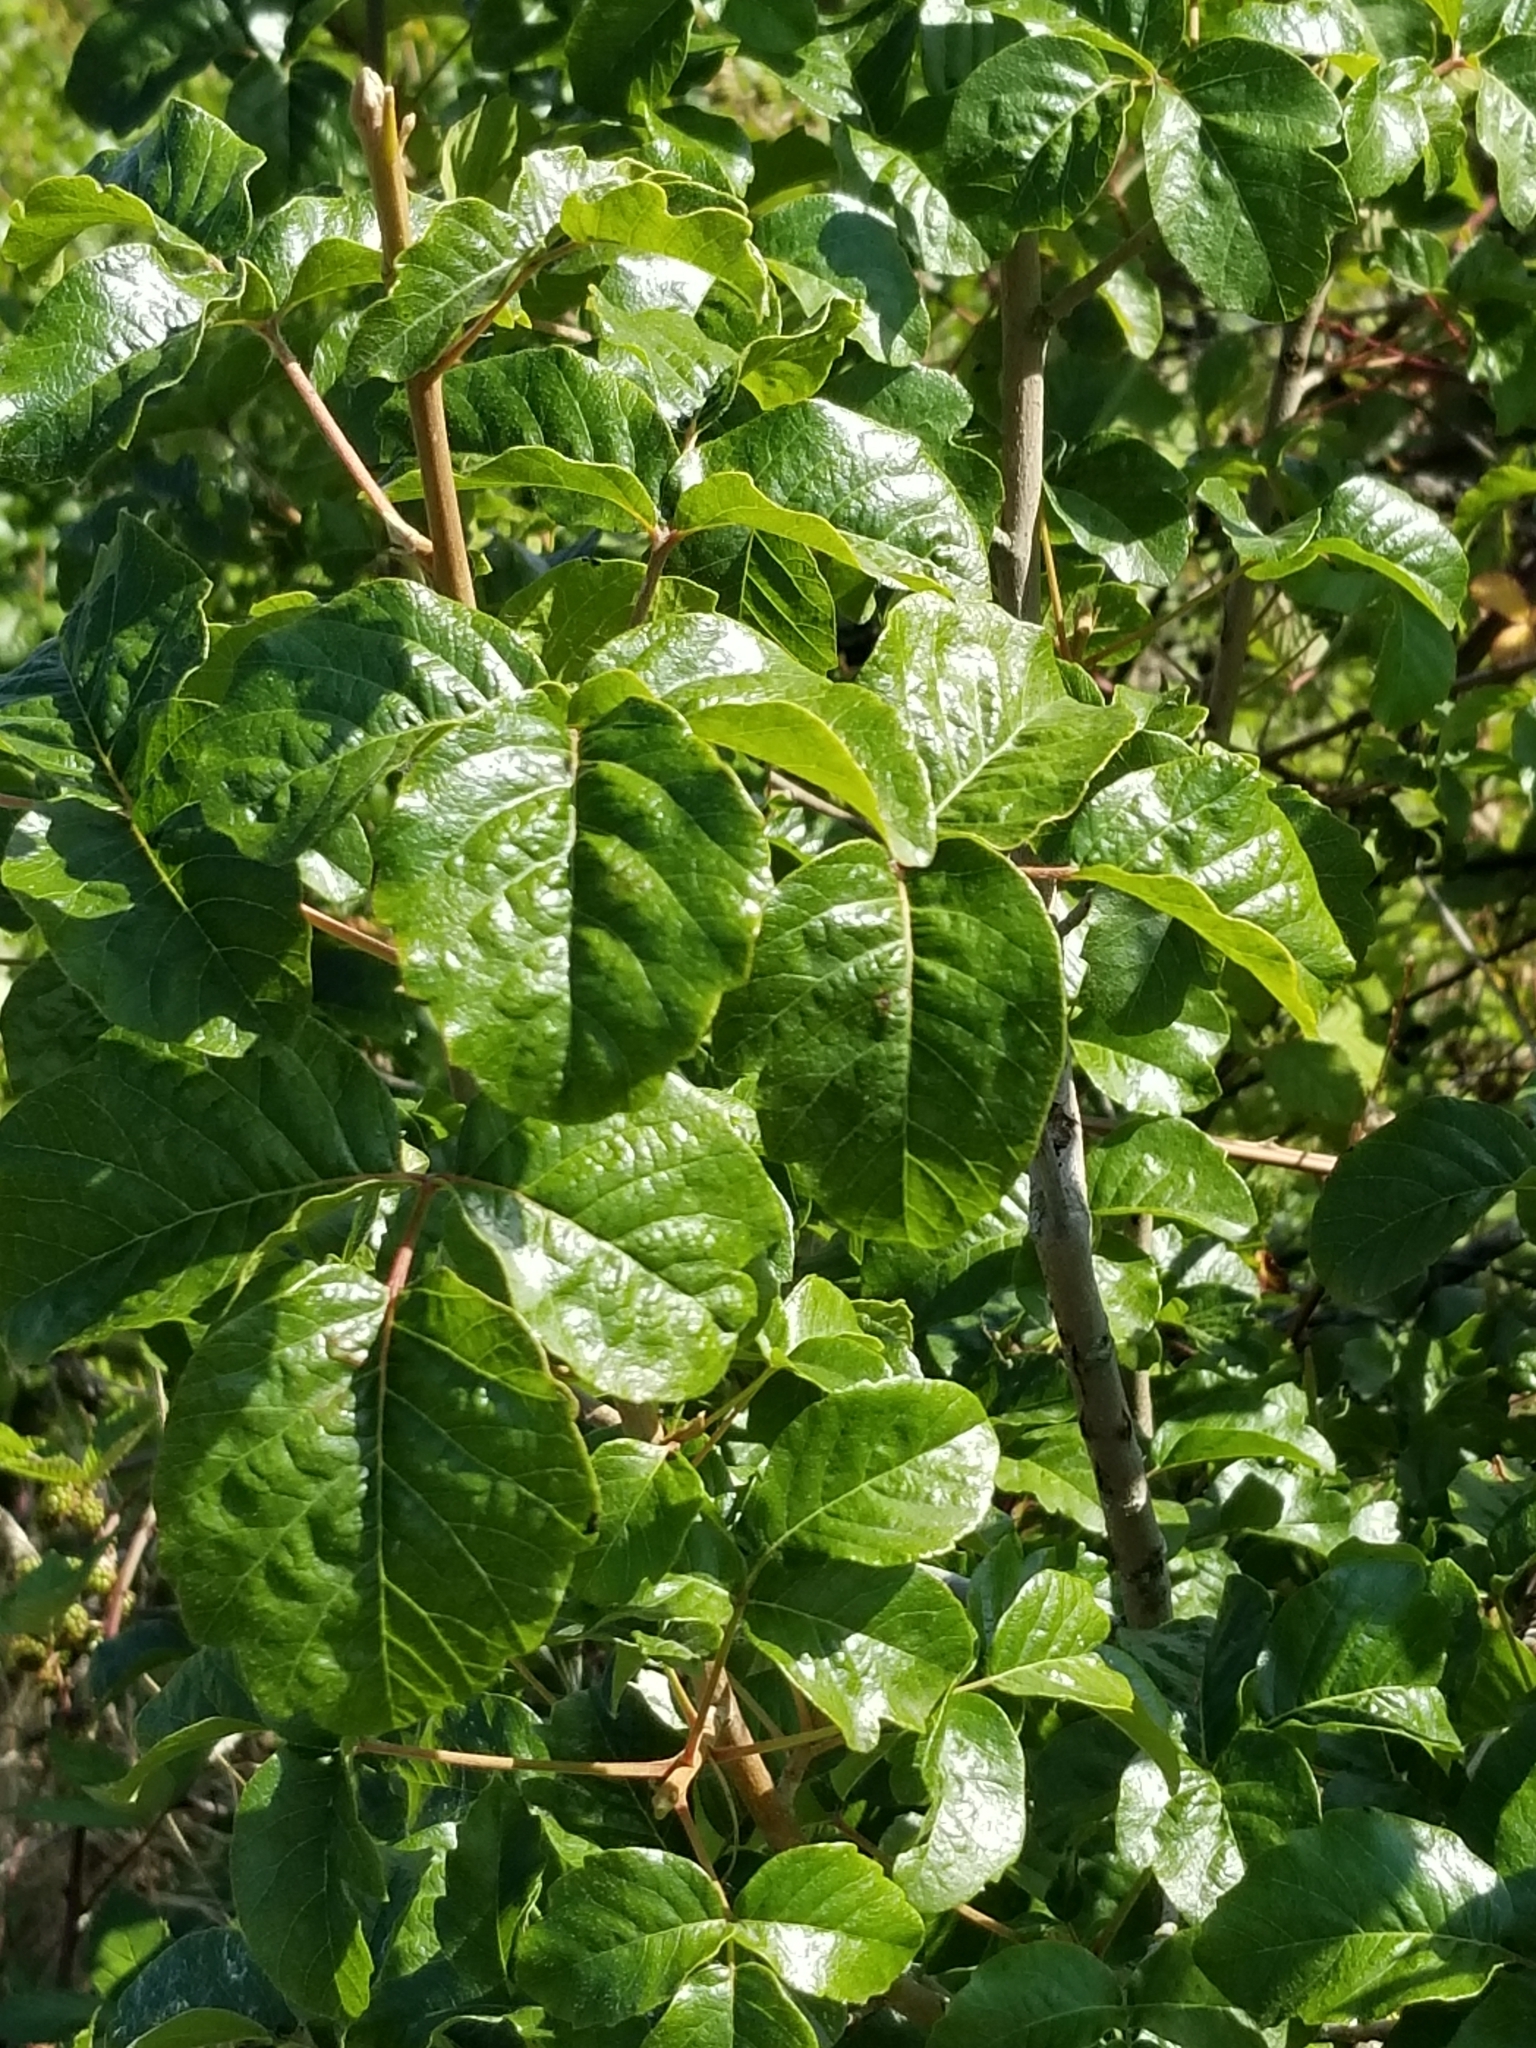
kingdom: Plantae
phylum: Tracheophyta
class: Magnoliopsida
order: Sapindales
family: Anacardiaceae
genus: Toxicodendron
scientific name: Toxicodendron diversilobum
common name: Pacific poison-oak
